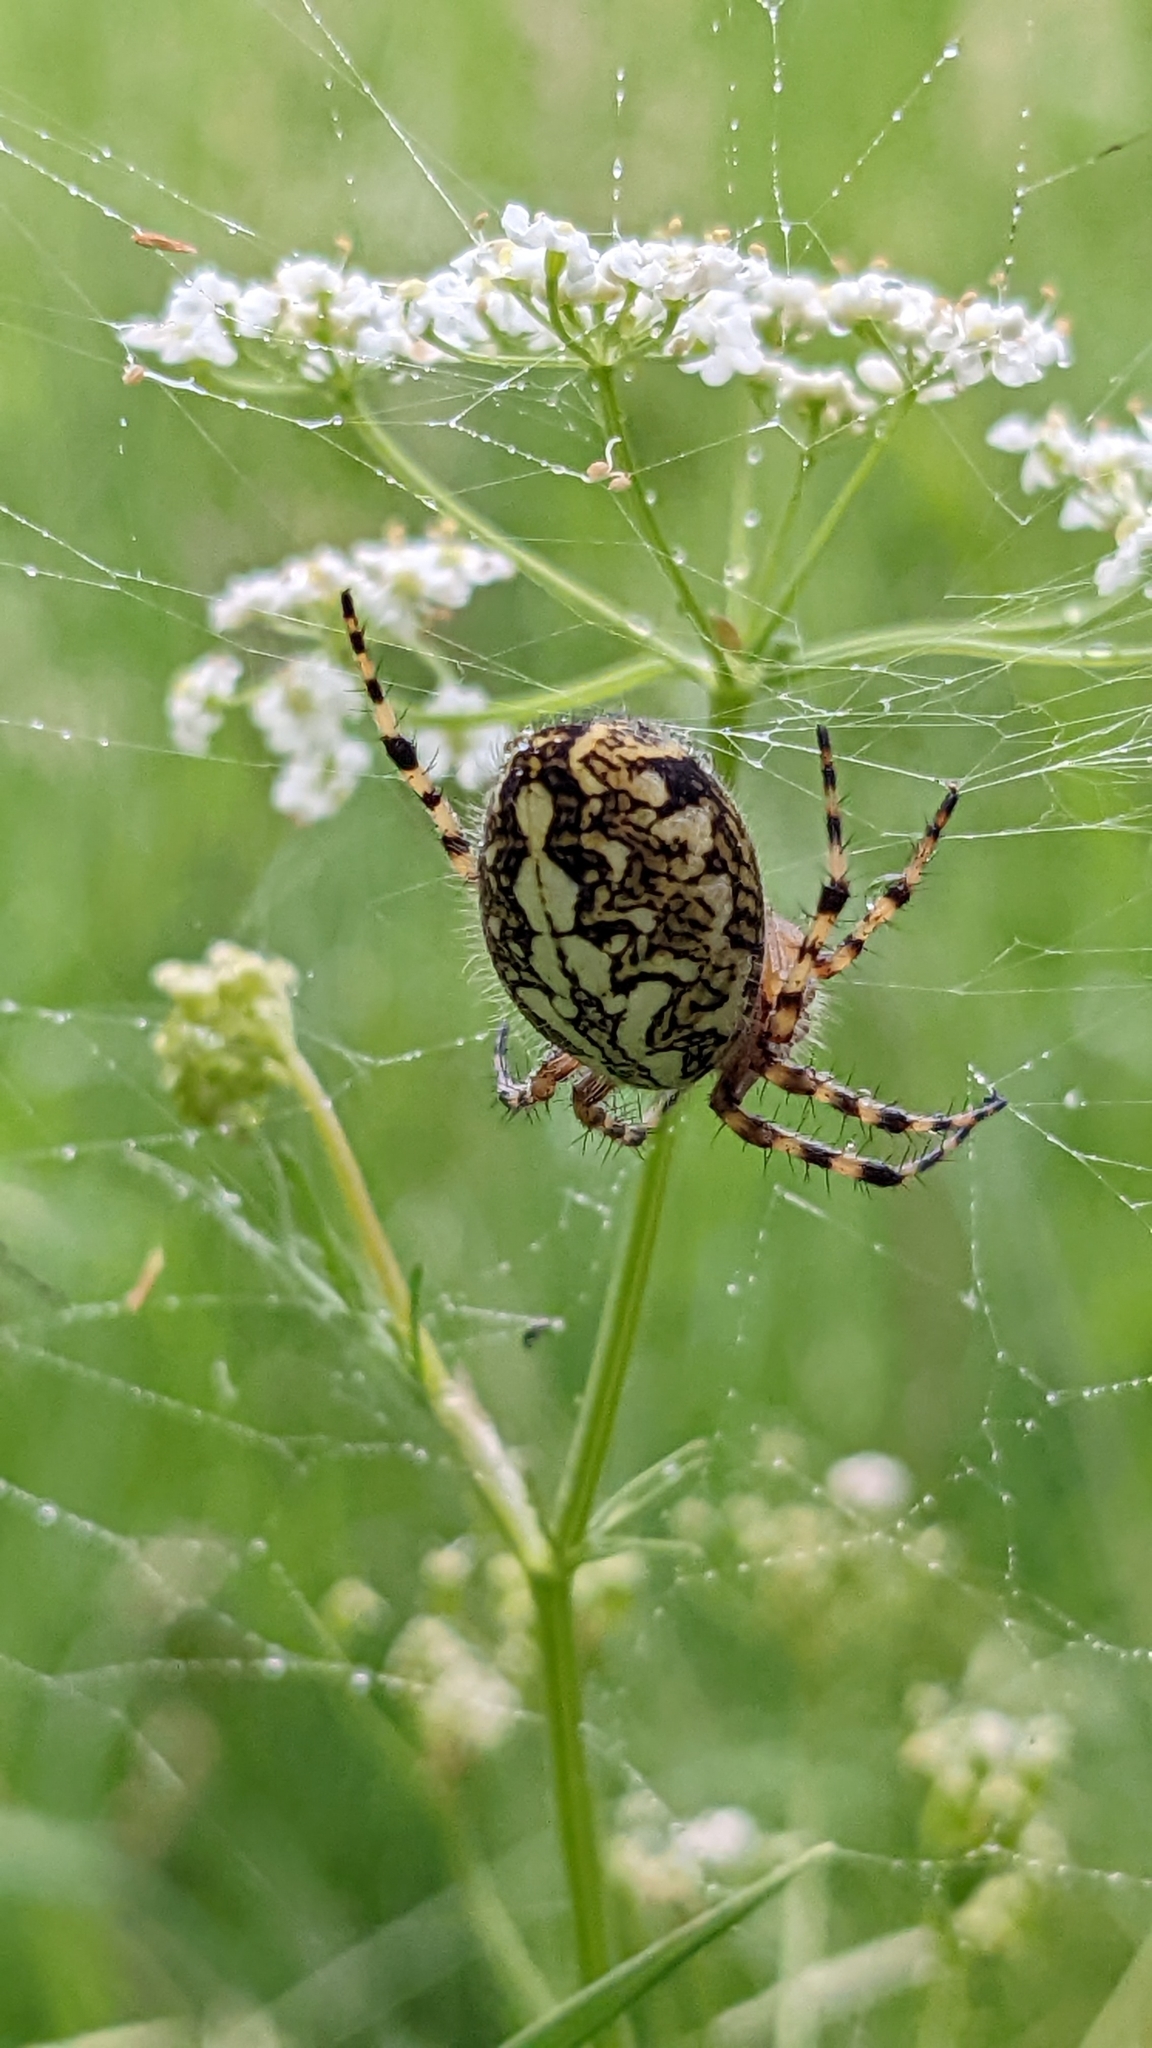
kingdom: Animalia
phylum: Arthropoda
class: Arachnida
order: Araneae
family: Araneidae
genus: Aculepeira
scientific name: Aculepeira ceropegia
